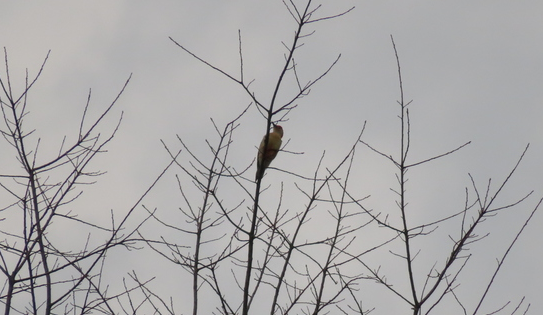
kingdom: Animalia
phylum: Chordata
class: Aves
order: Piciformes
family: Picidae
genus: Melanerpes
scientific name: Melanerpes carolinus
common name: Red-bellied woodpecker
